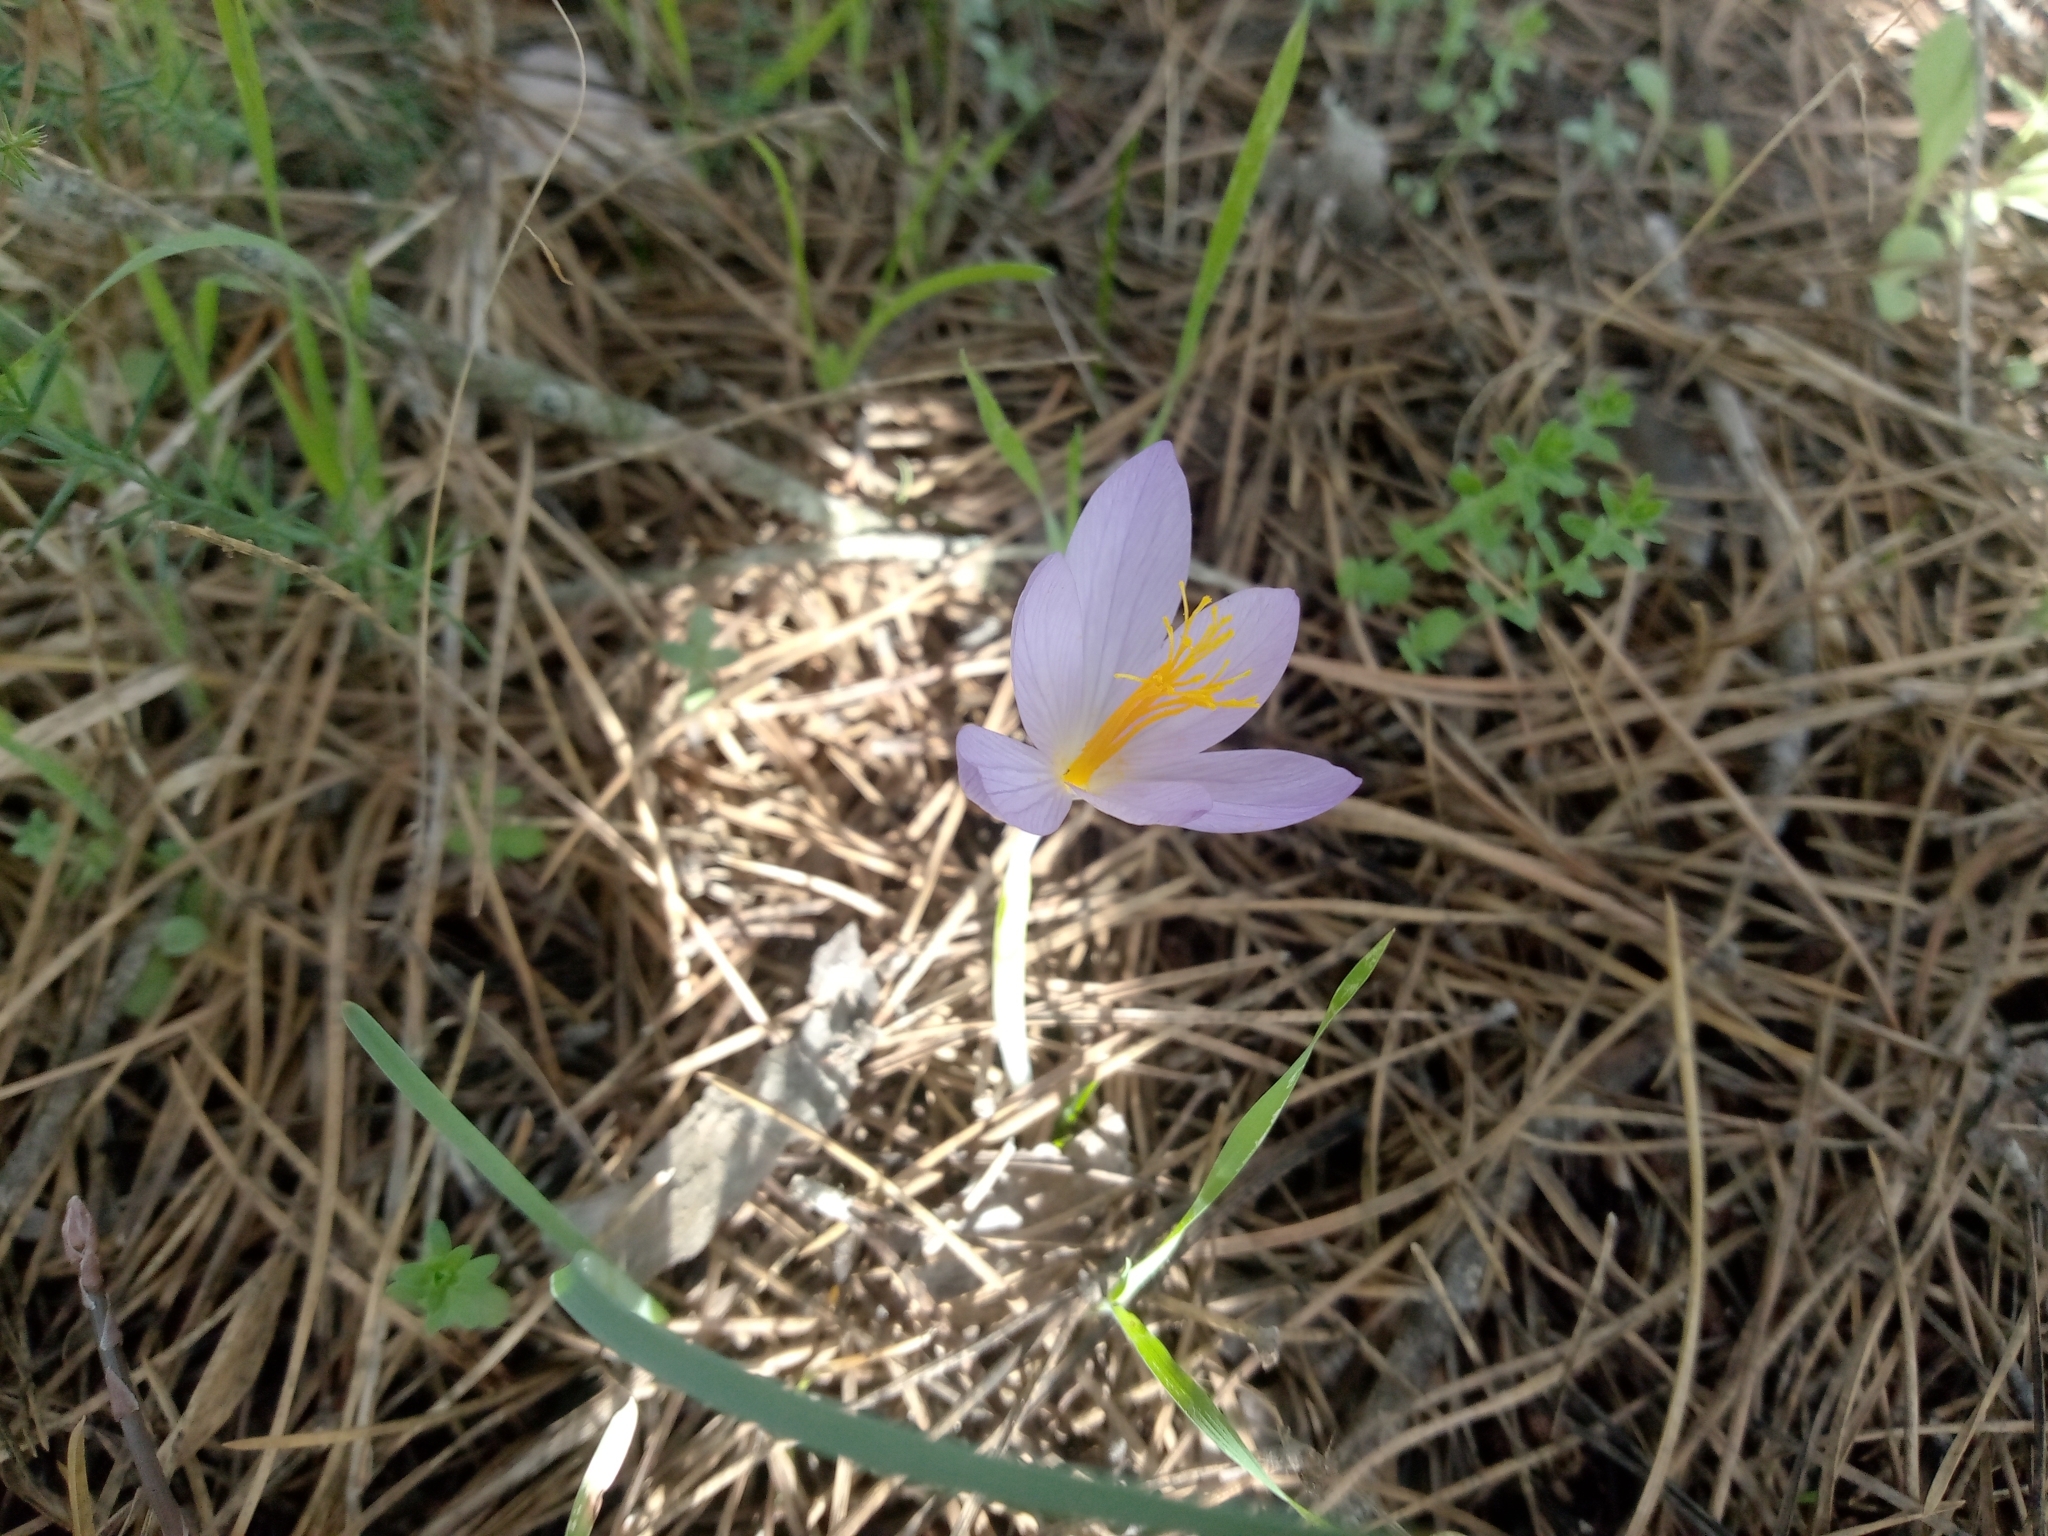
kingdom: Plantae
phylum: Tracheophyta
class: Liliopsida
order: Asparagales
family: Iridaceae
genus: Crocus
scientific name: Crocus serotinus
